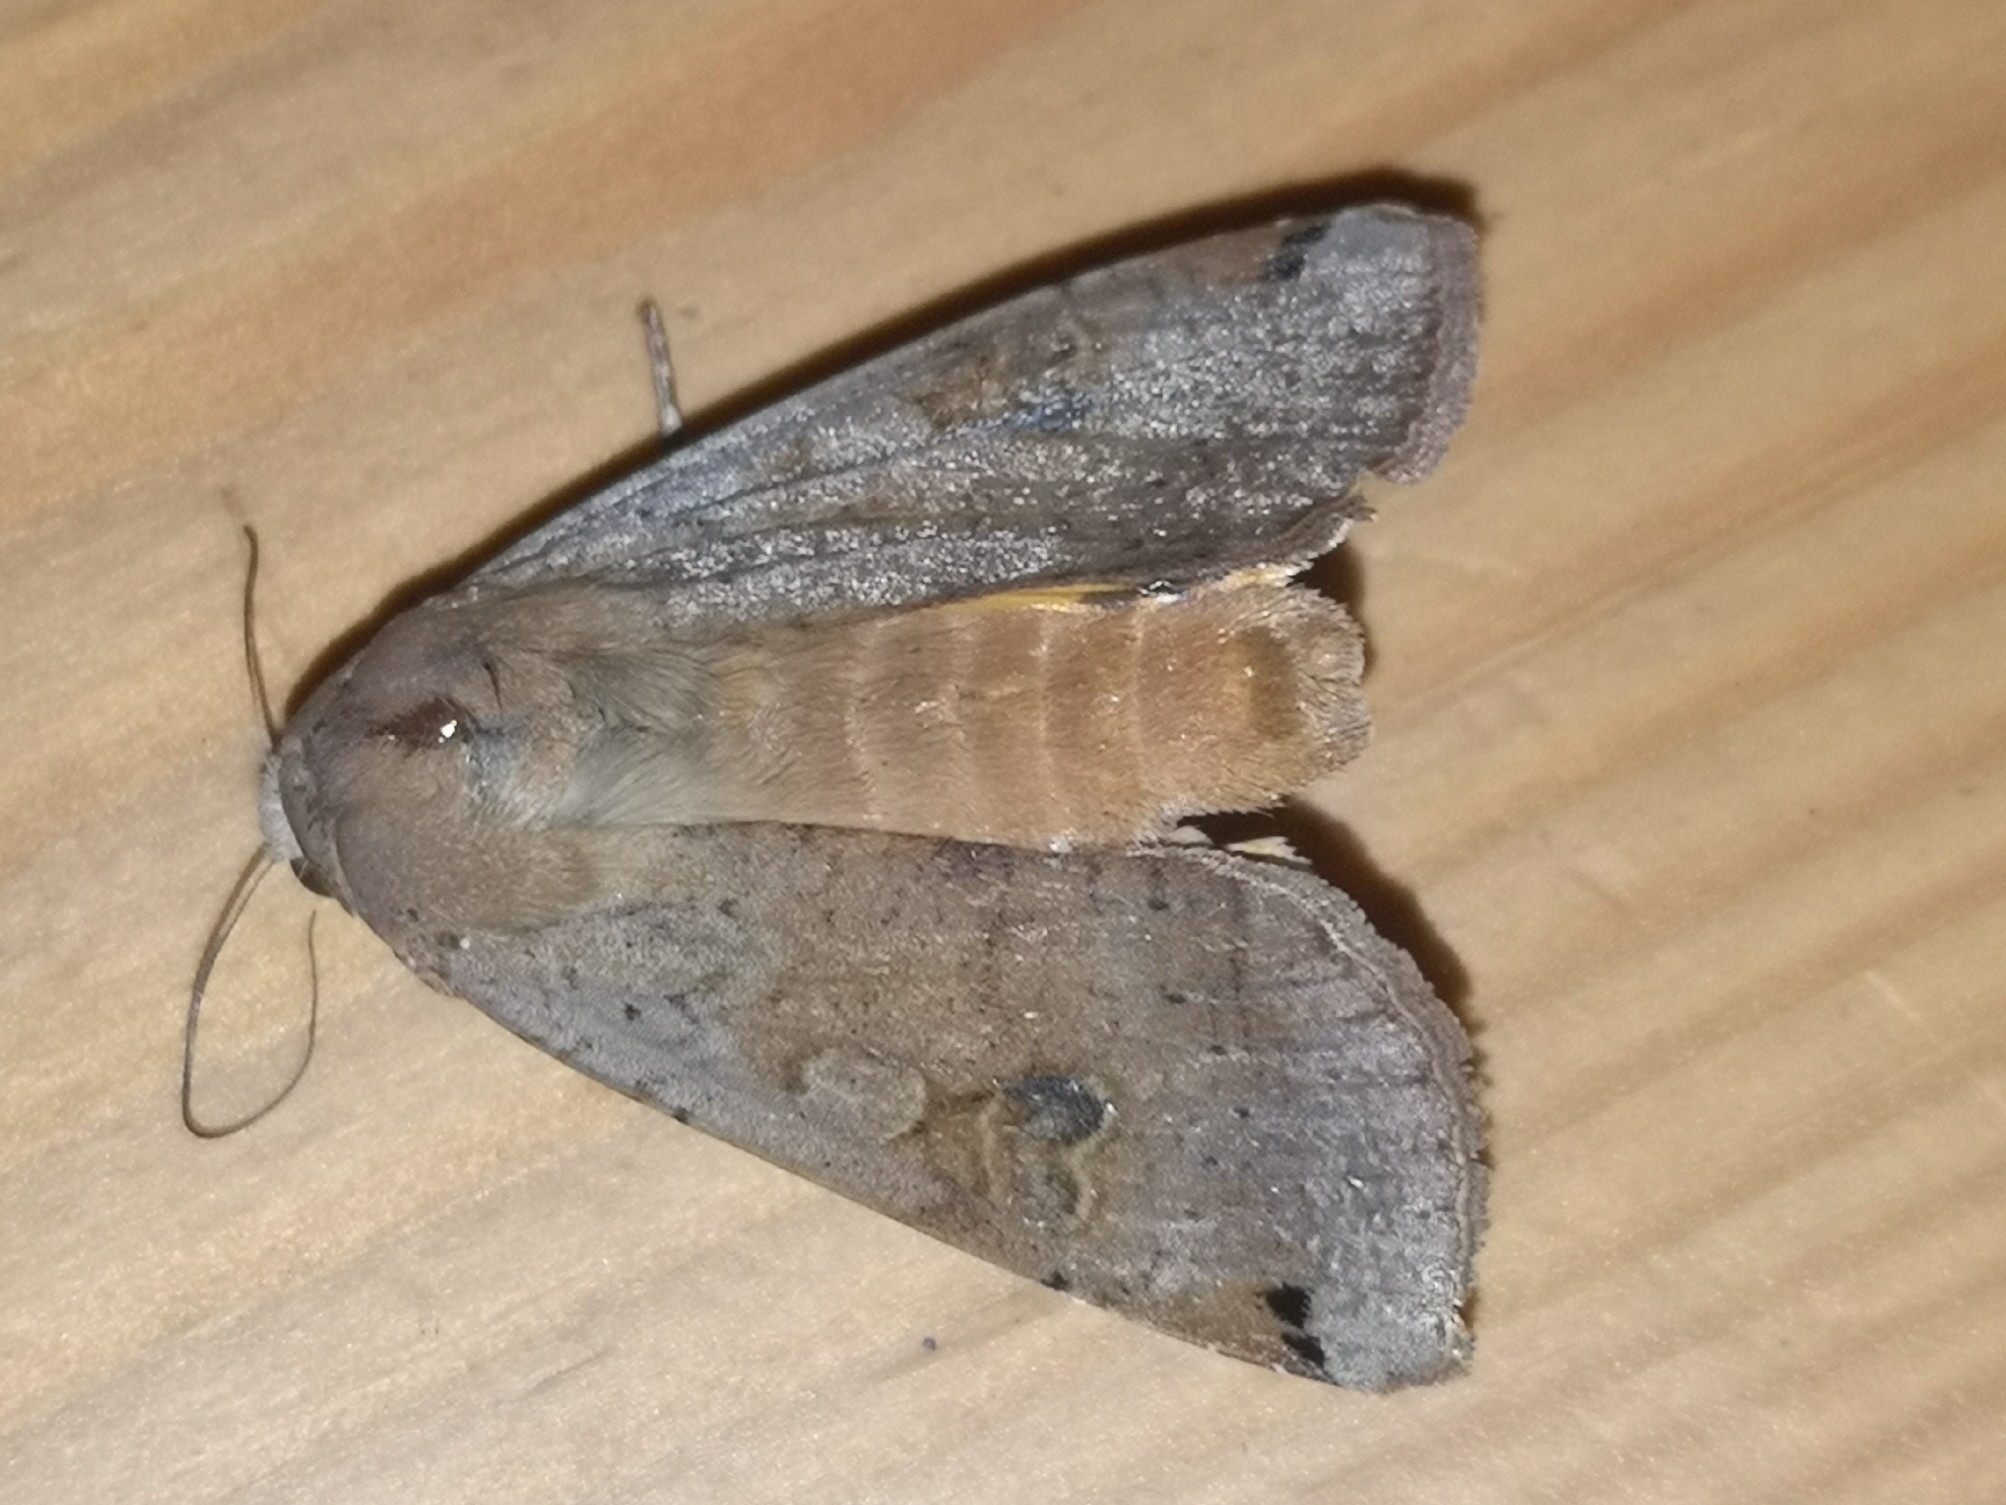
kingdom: Animalia
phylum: Arthropoda
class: Insecta
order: Lepidoptera
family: Noctuidae
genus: Noctua
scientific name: Noctua pronuba
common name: Large yellow underwing
